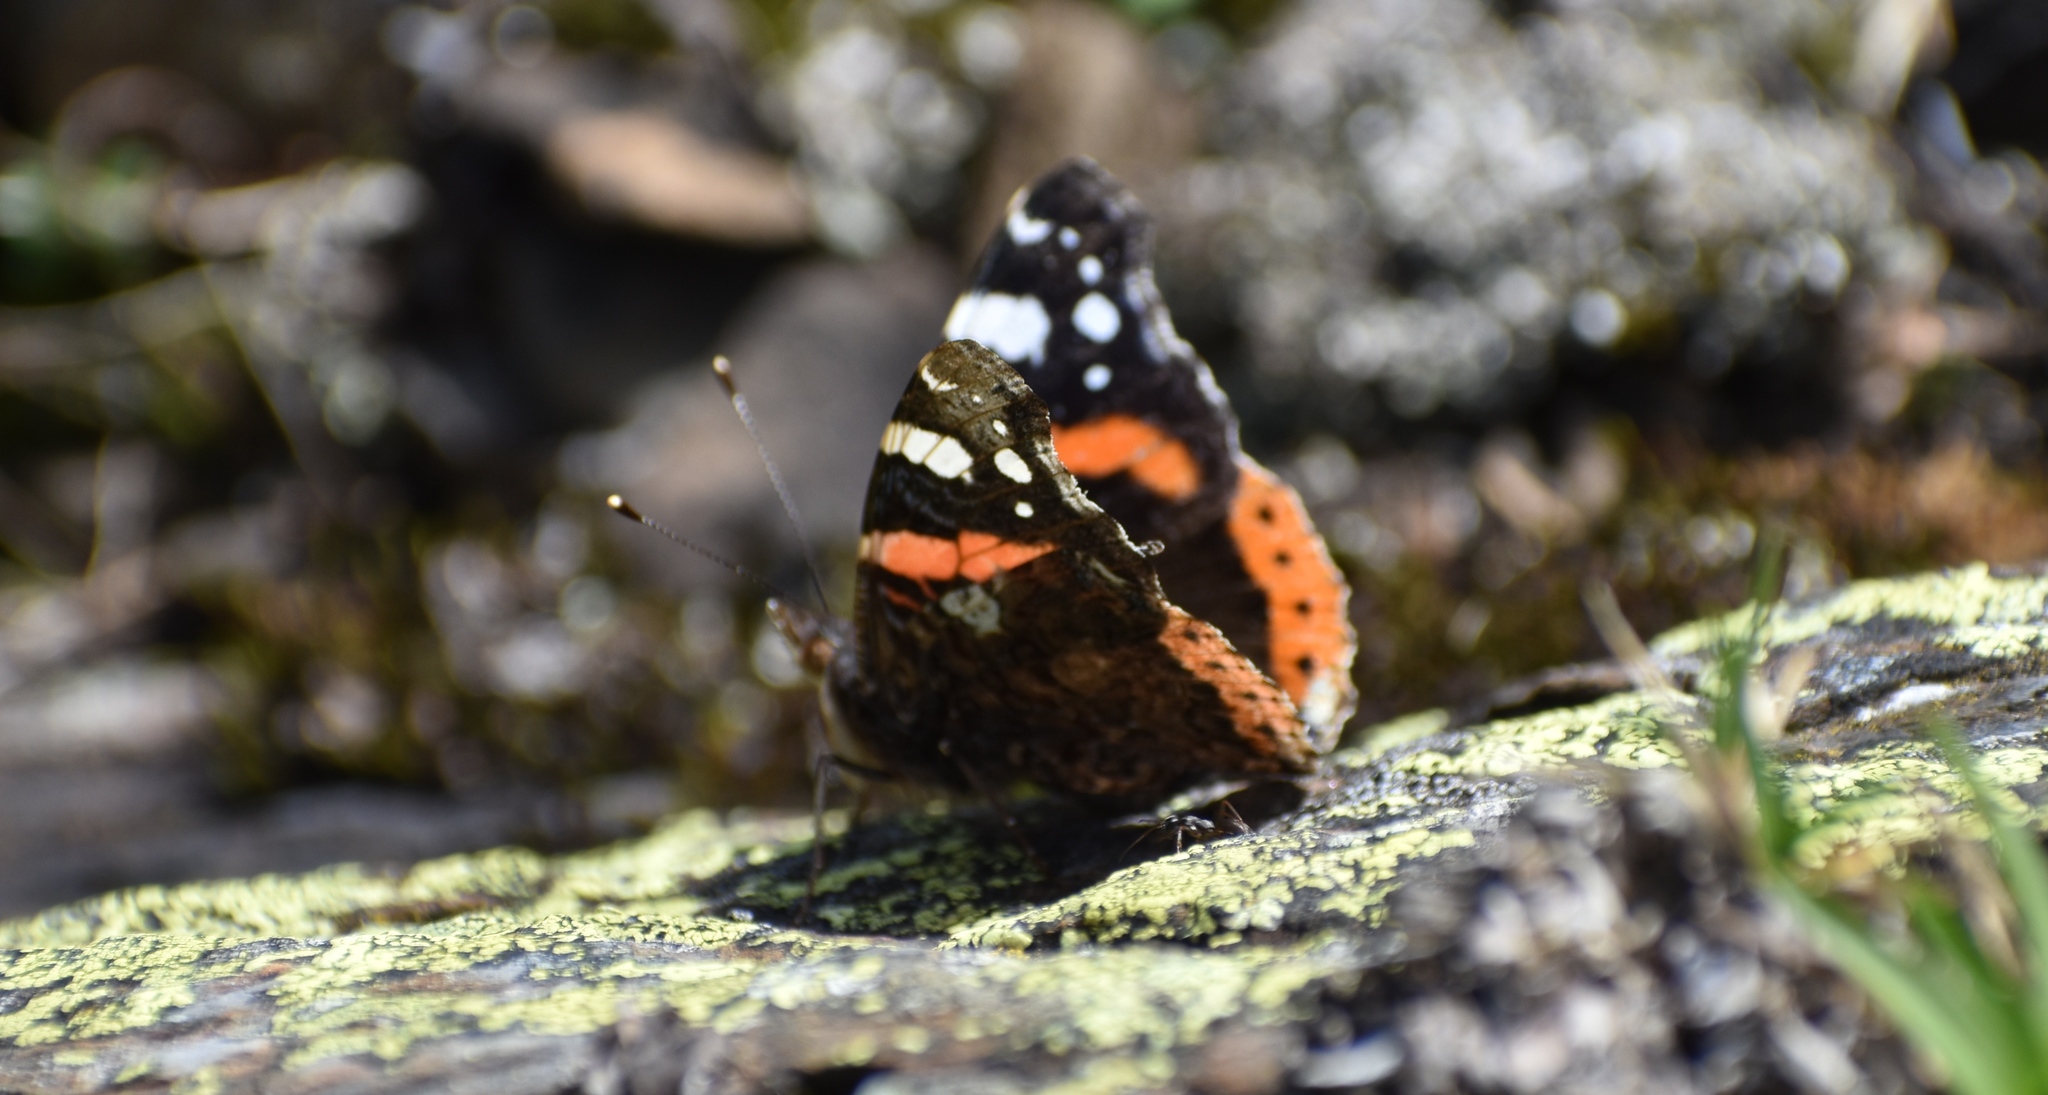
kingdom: Animalia
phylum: Arthropoda
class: Insecta
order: Lepidoptera
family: Nymphalidae
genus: Vanessa
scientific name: Vanessa atalanta
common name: Red admiral
